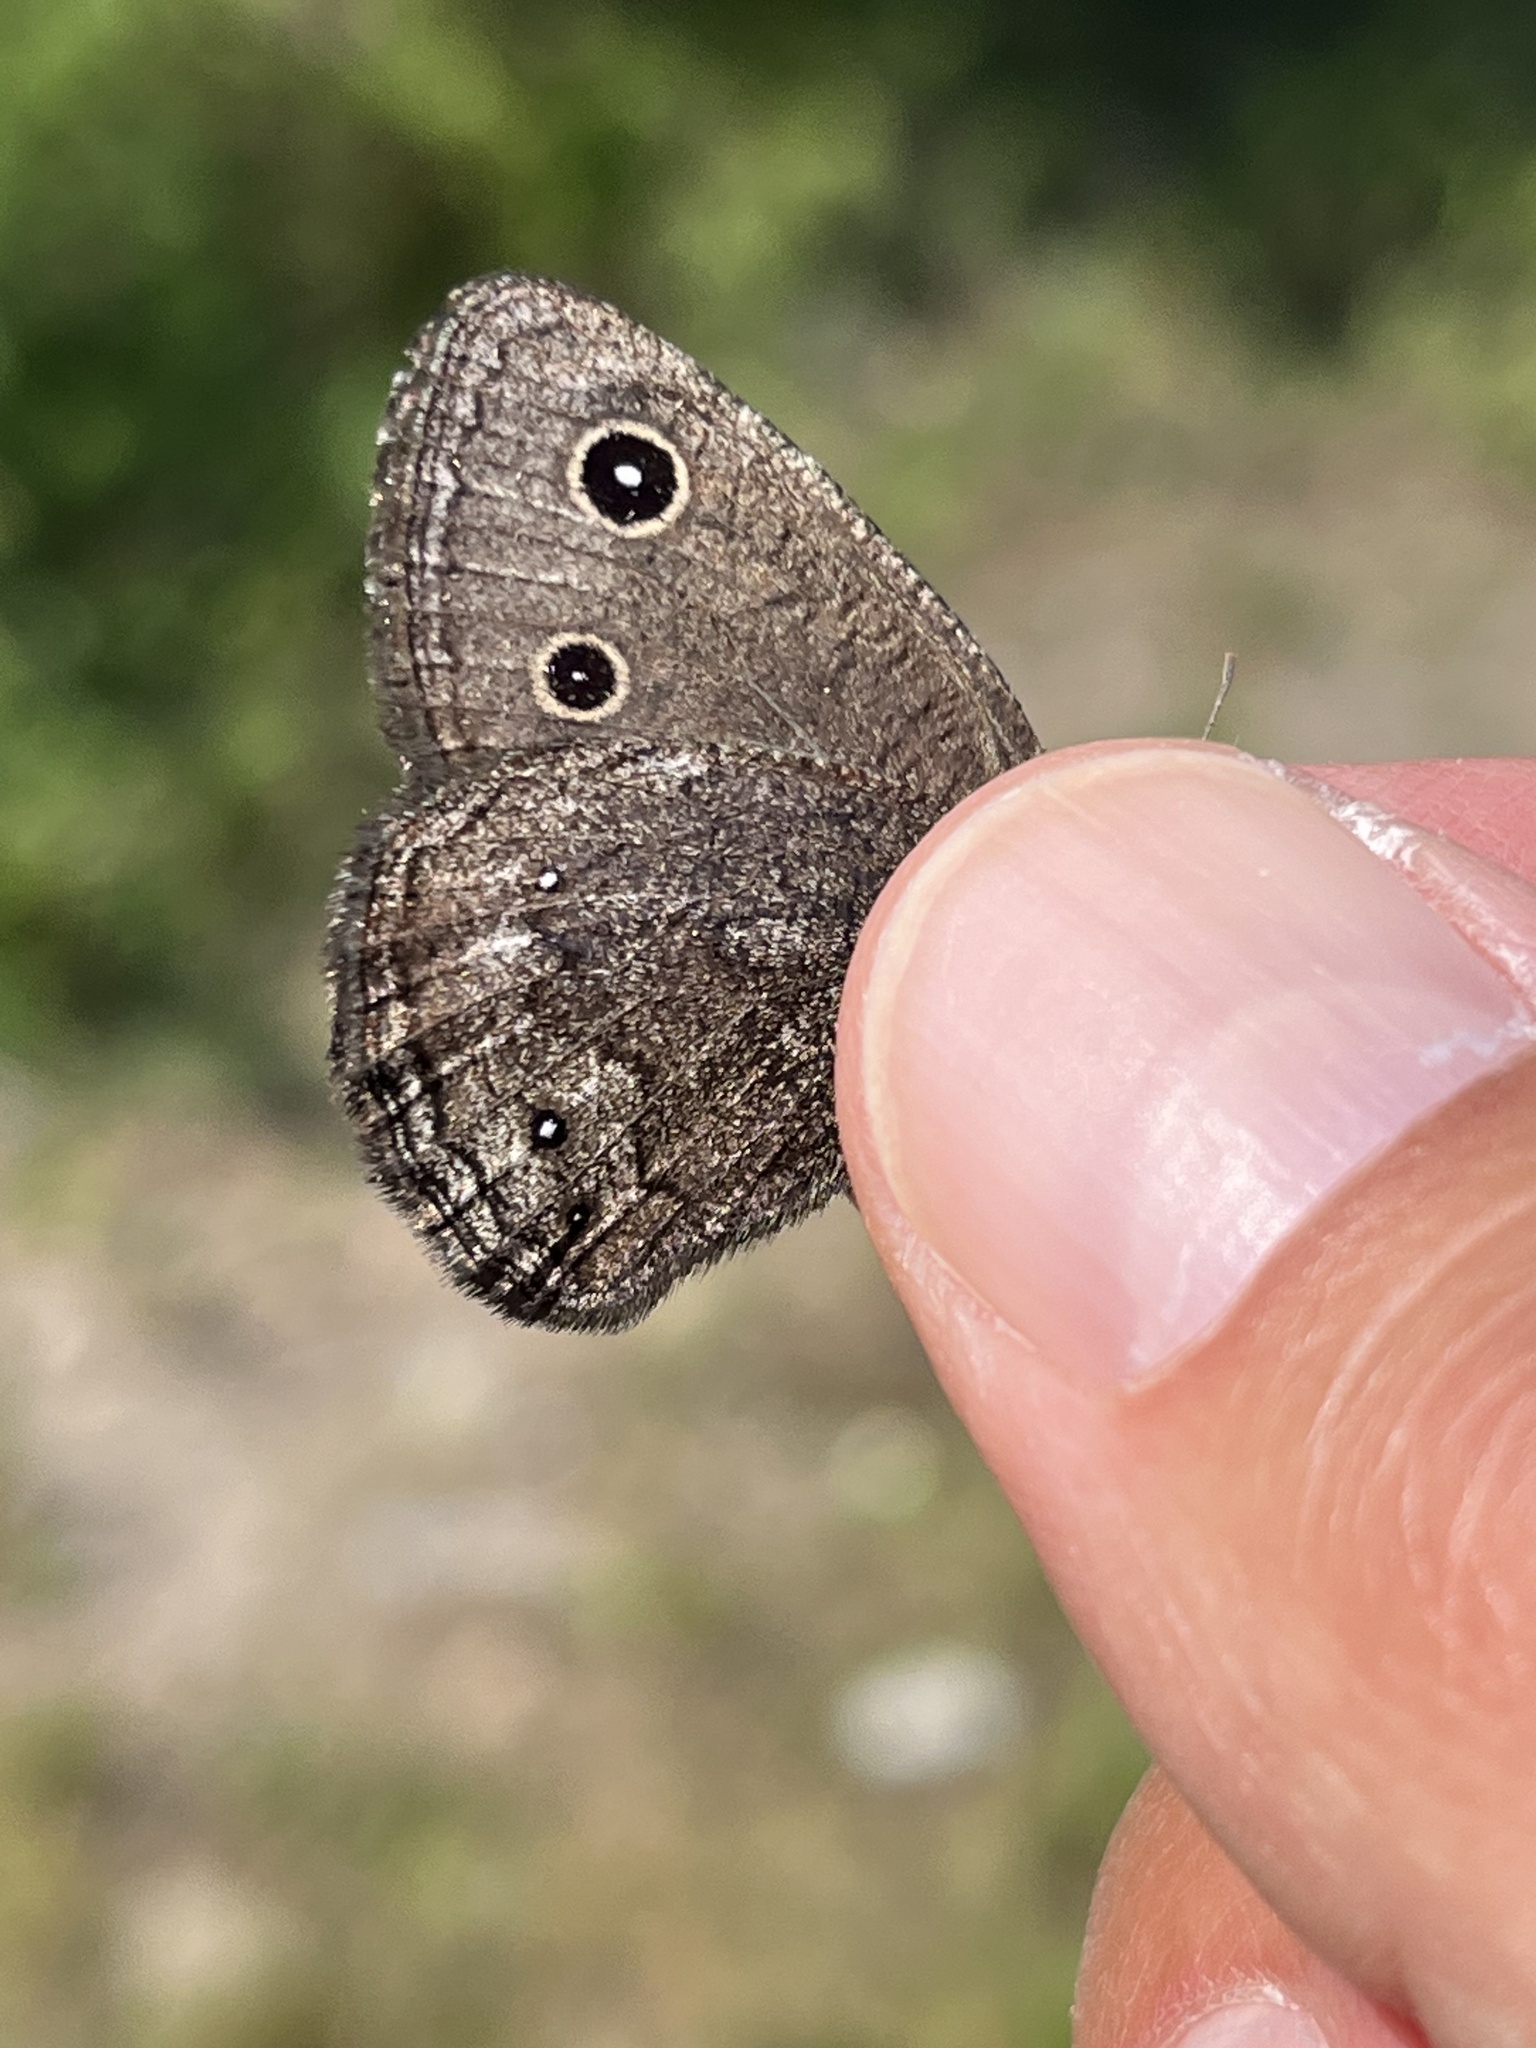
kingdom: Animalia
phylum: Arthropoda
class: Insecta
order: Lepidoptera
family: Nymphalidae
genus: Cercyonis
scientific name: Cercyonis oetus
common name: Small wood-nymph
